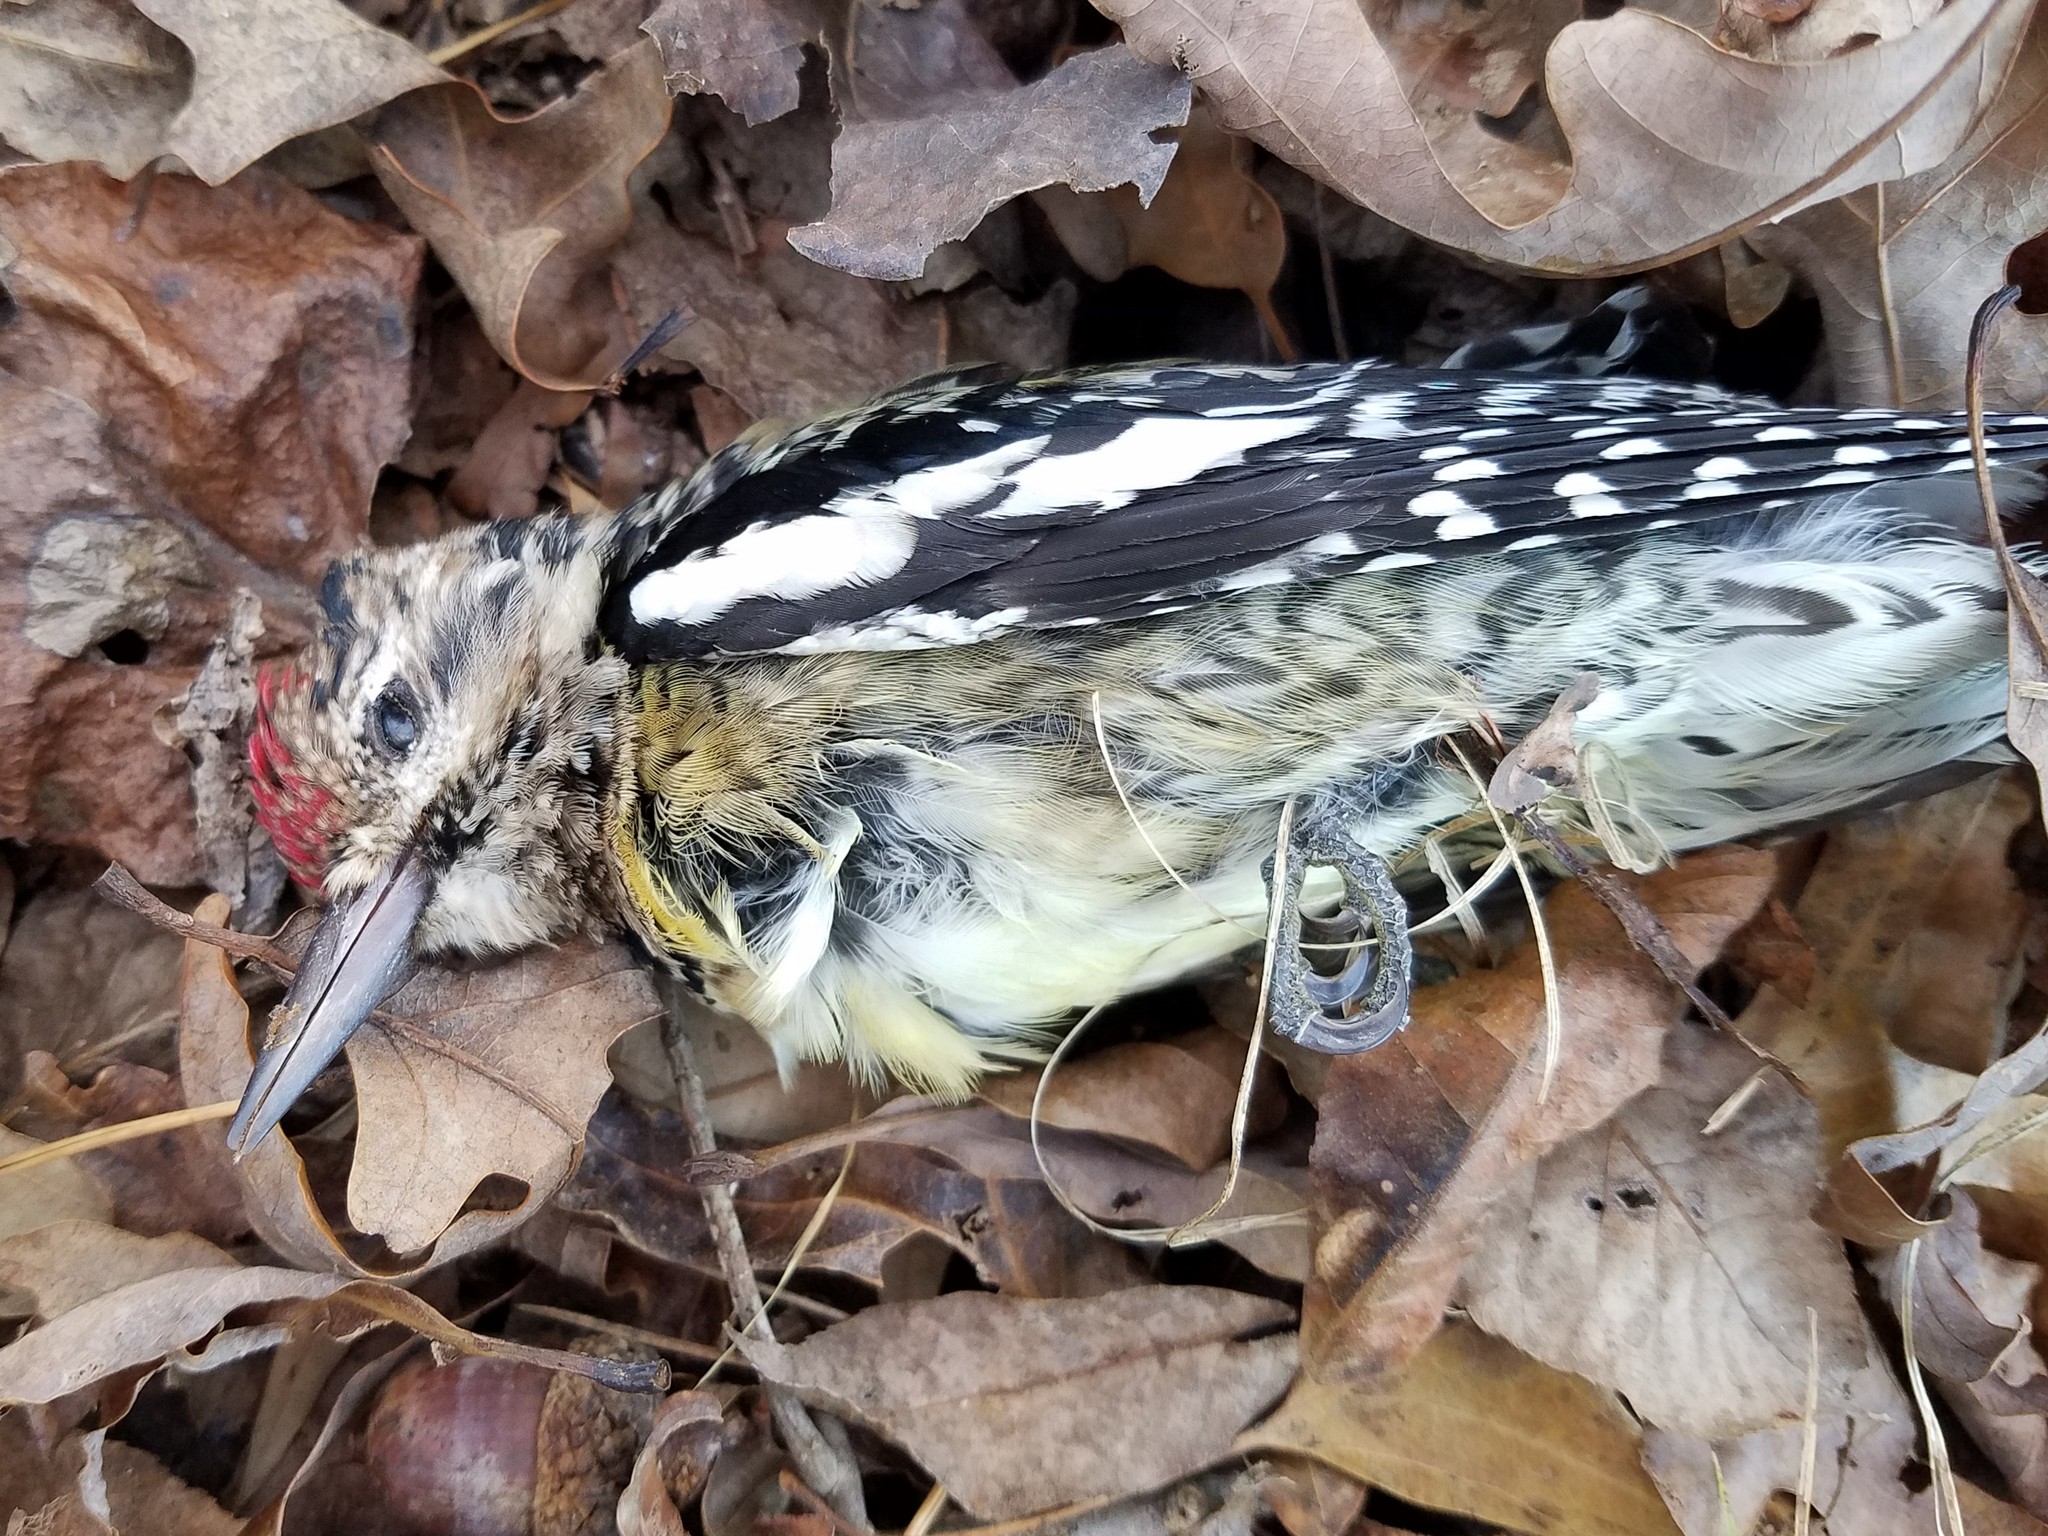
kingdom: Animalia
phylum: Chordata
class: Aves
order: Piciformes
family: Picidae
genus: Sphyrapicus
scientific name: Sphyrapicus varius
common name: Yellow-bellied sapsucker
